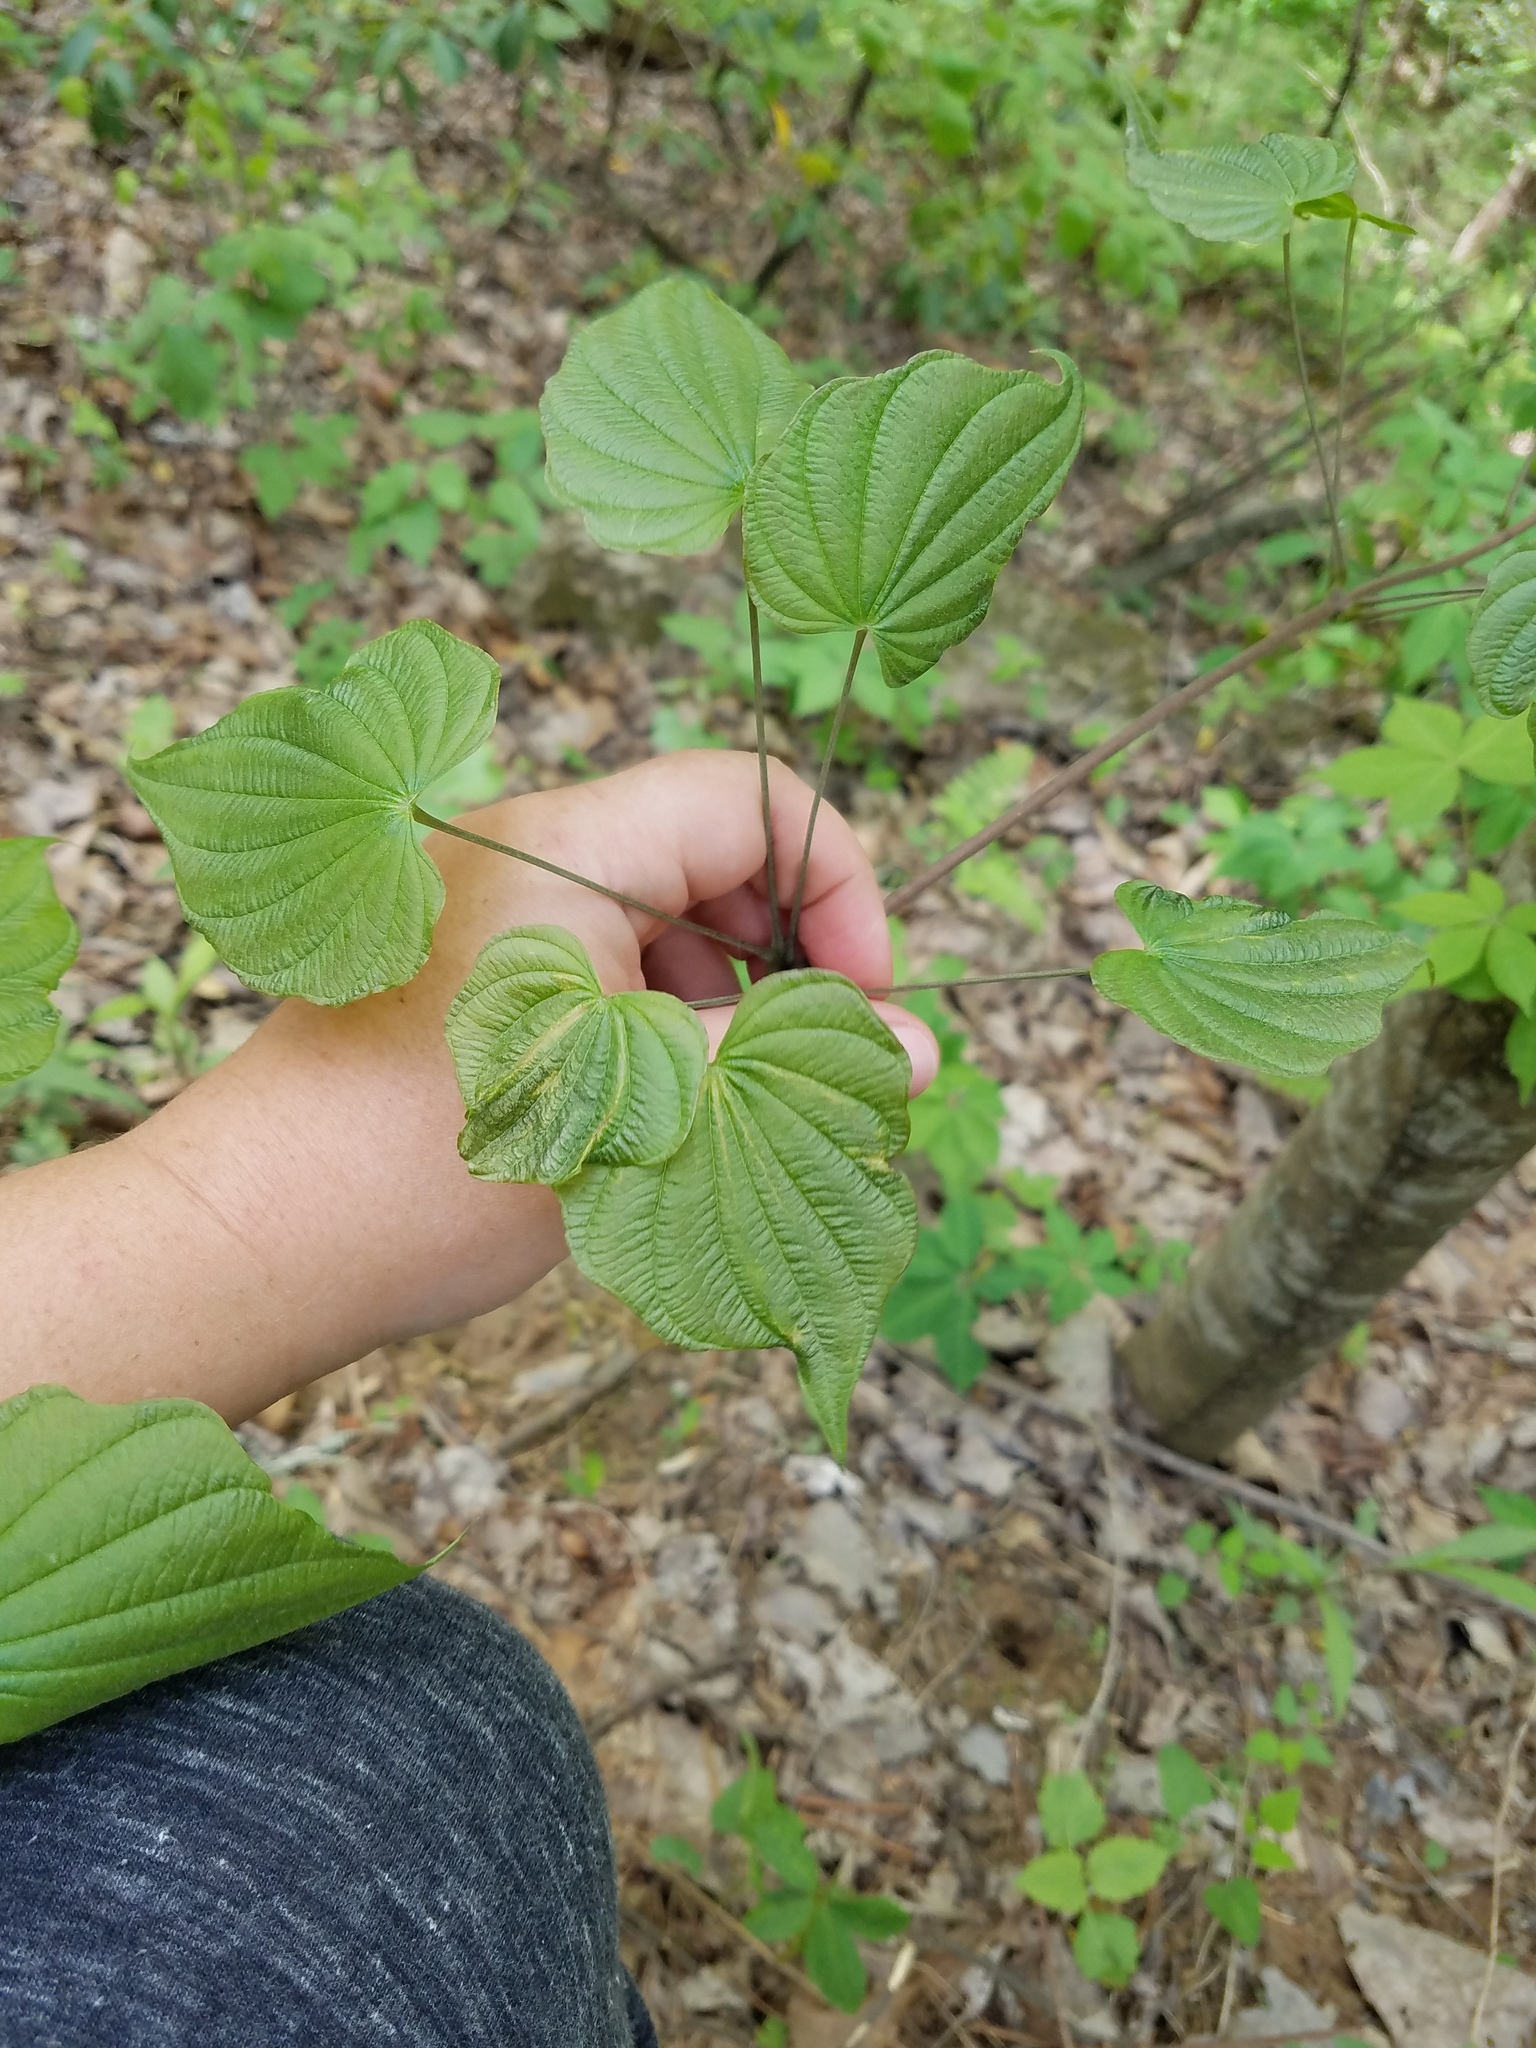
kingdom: Plantae
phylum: Tracheophyta
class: Liliopsida
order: Dioscoreales
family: Dioscoreaceae
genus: Dioscorea
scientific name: Dioscorea villosa
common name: Wild yam
